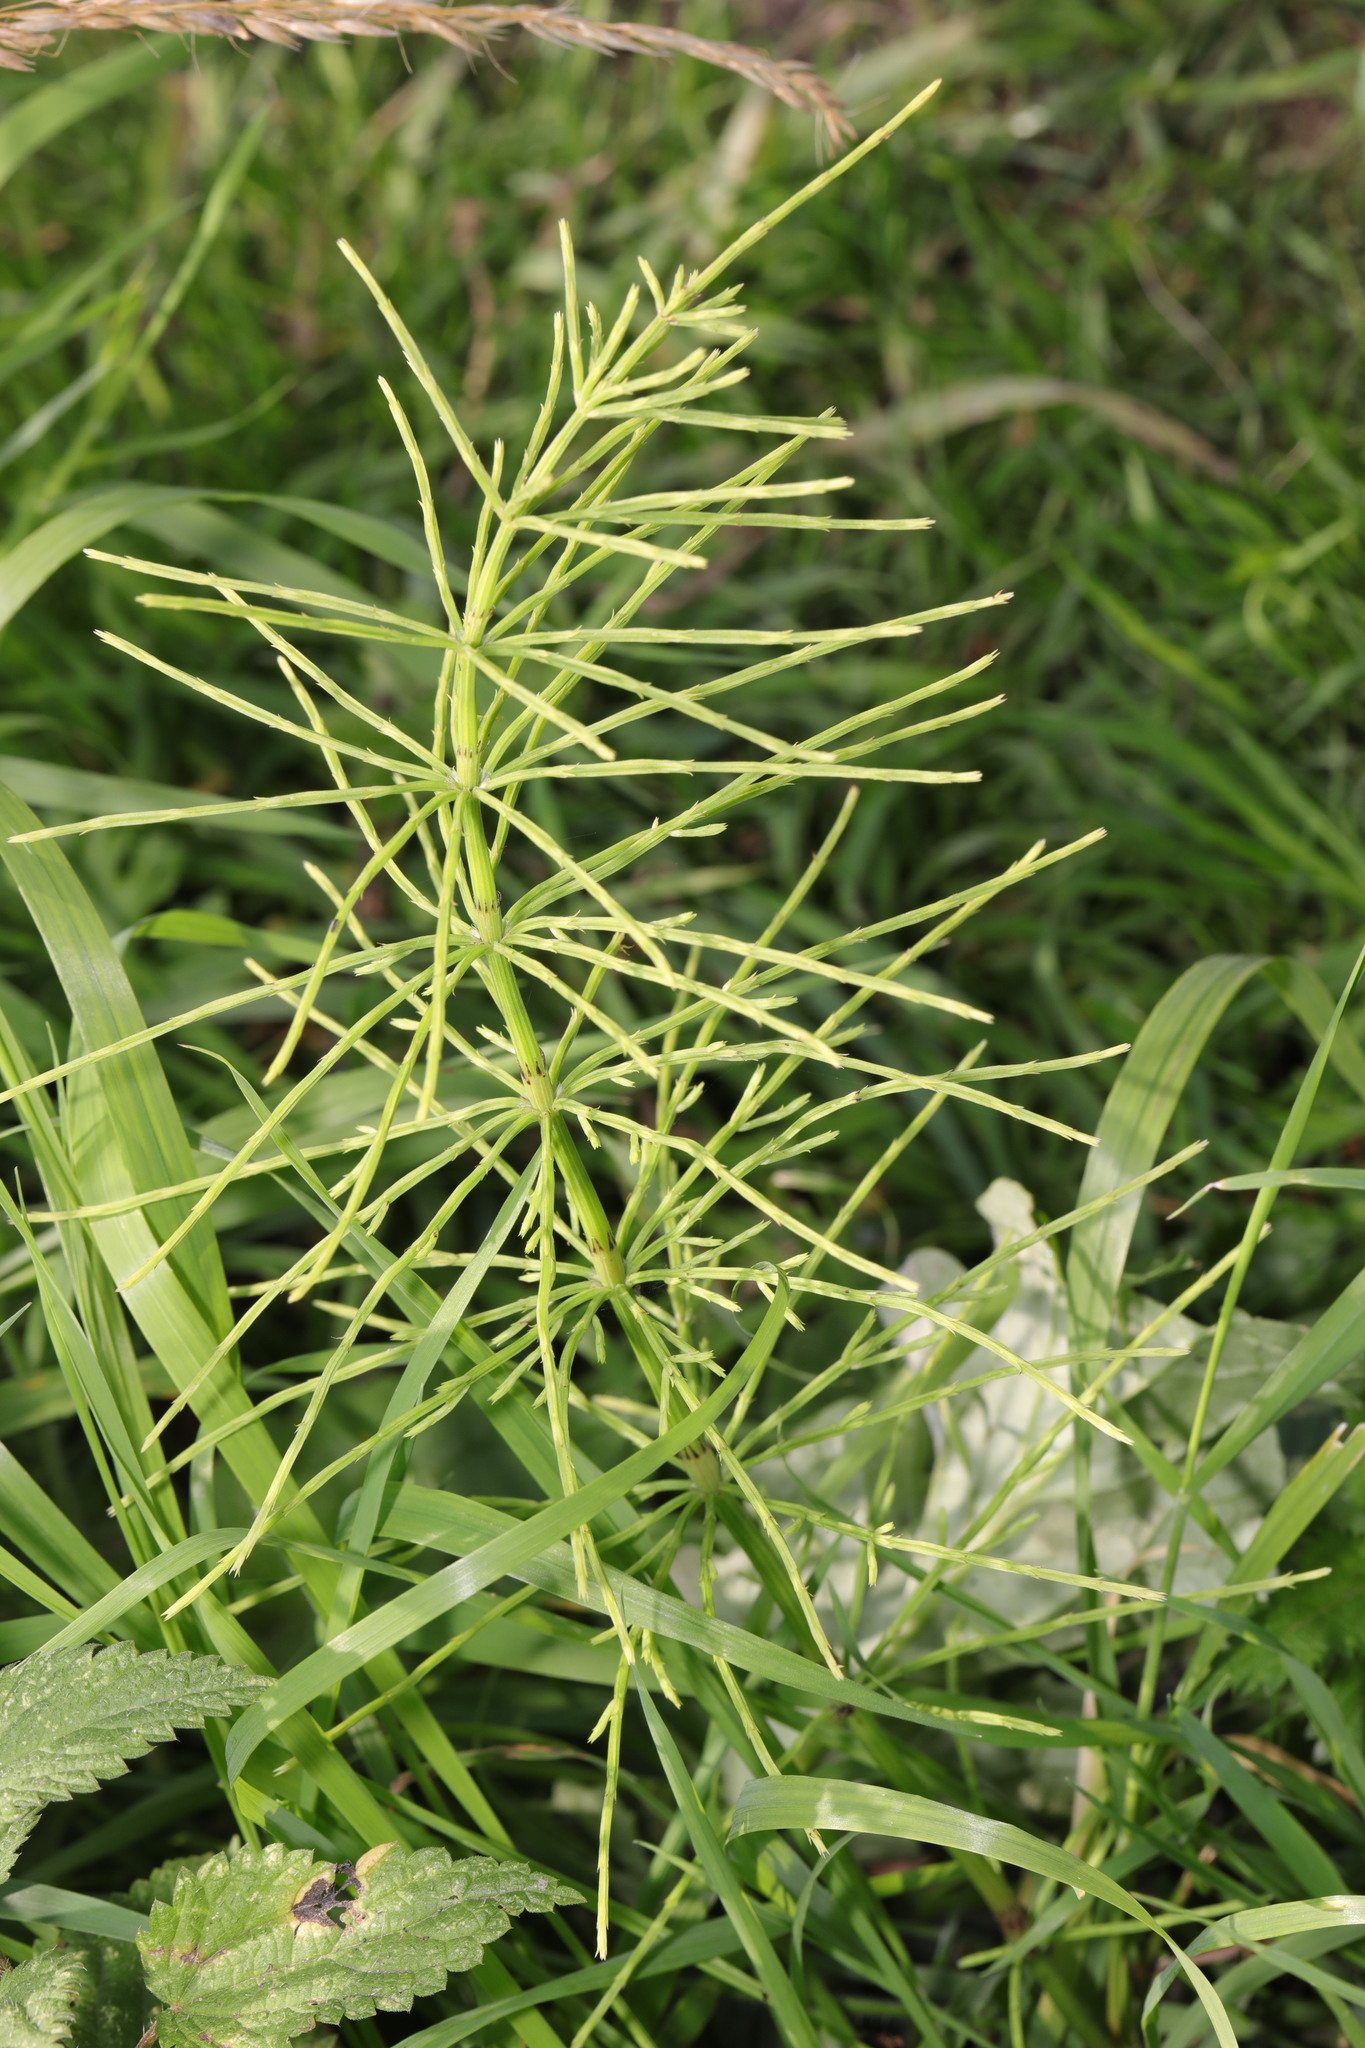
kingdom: Plantae
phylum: Tracheophyta
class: Polypodiopsida
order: Equisetales
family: Equisetaceae
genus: Equisetum
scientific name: Equisetum arvense
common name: Field horsetail
